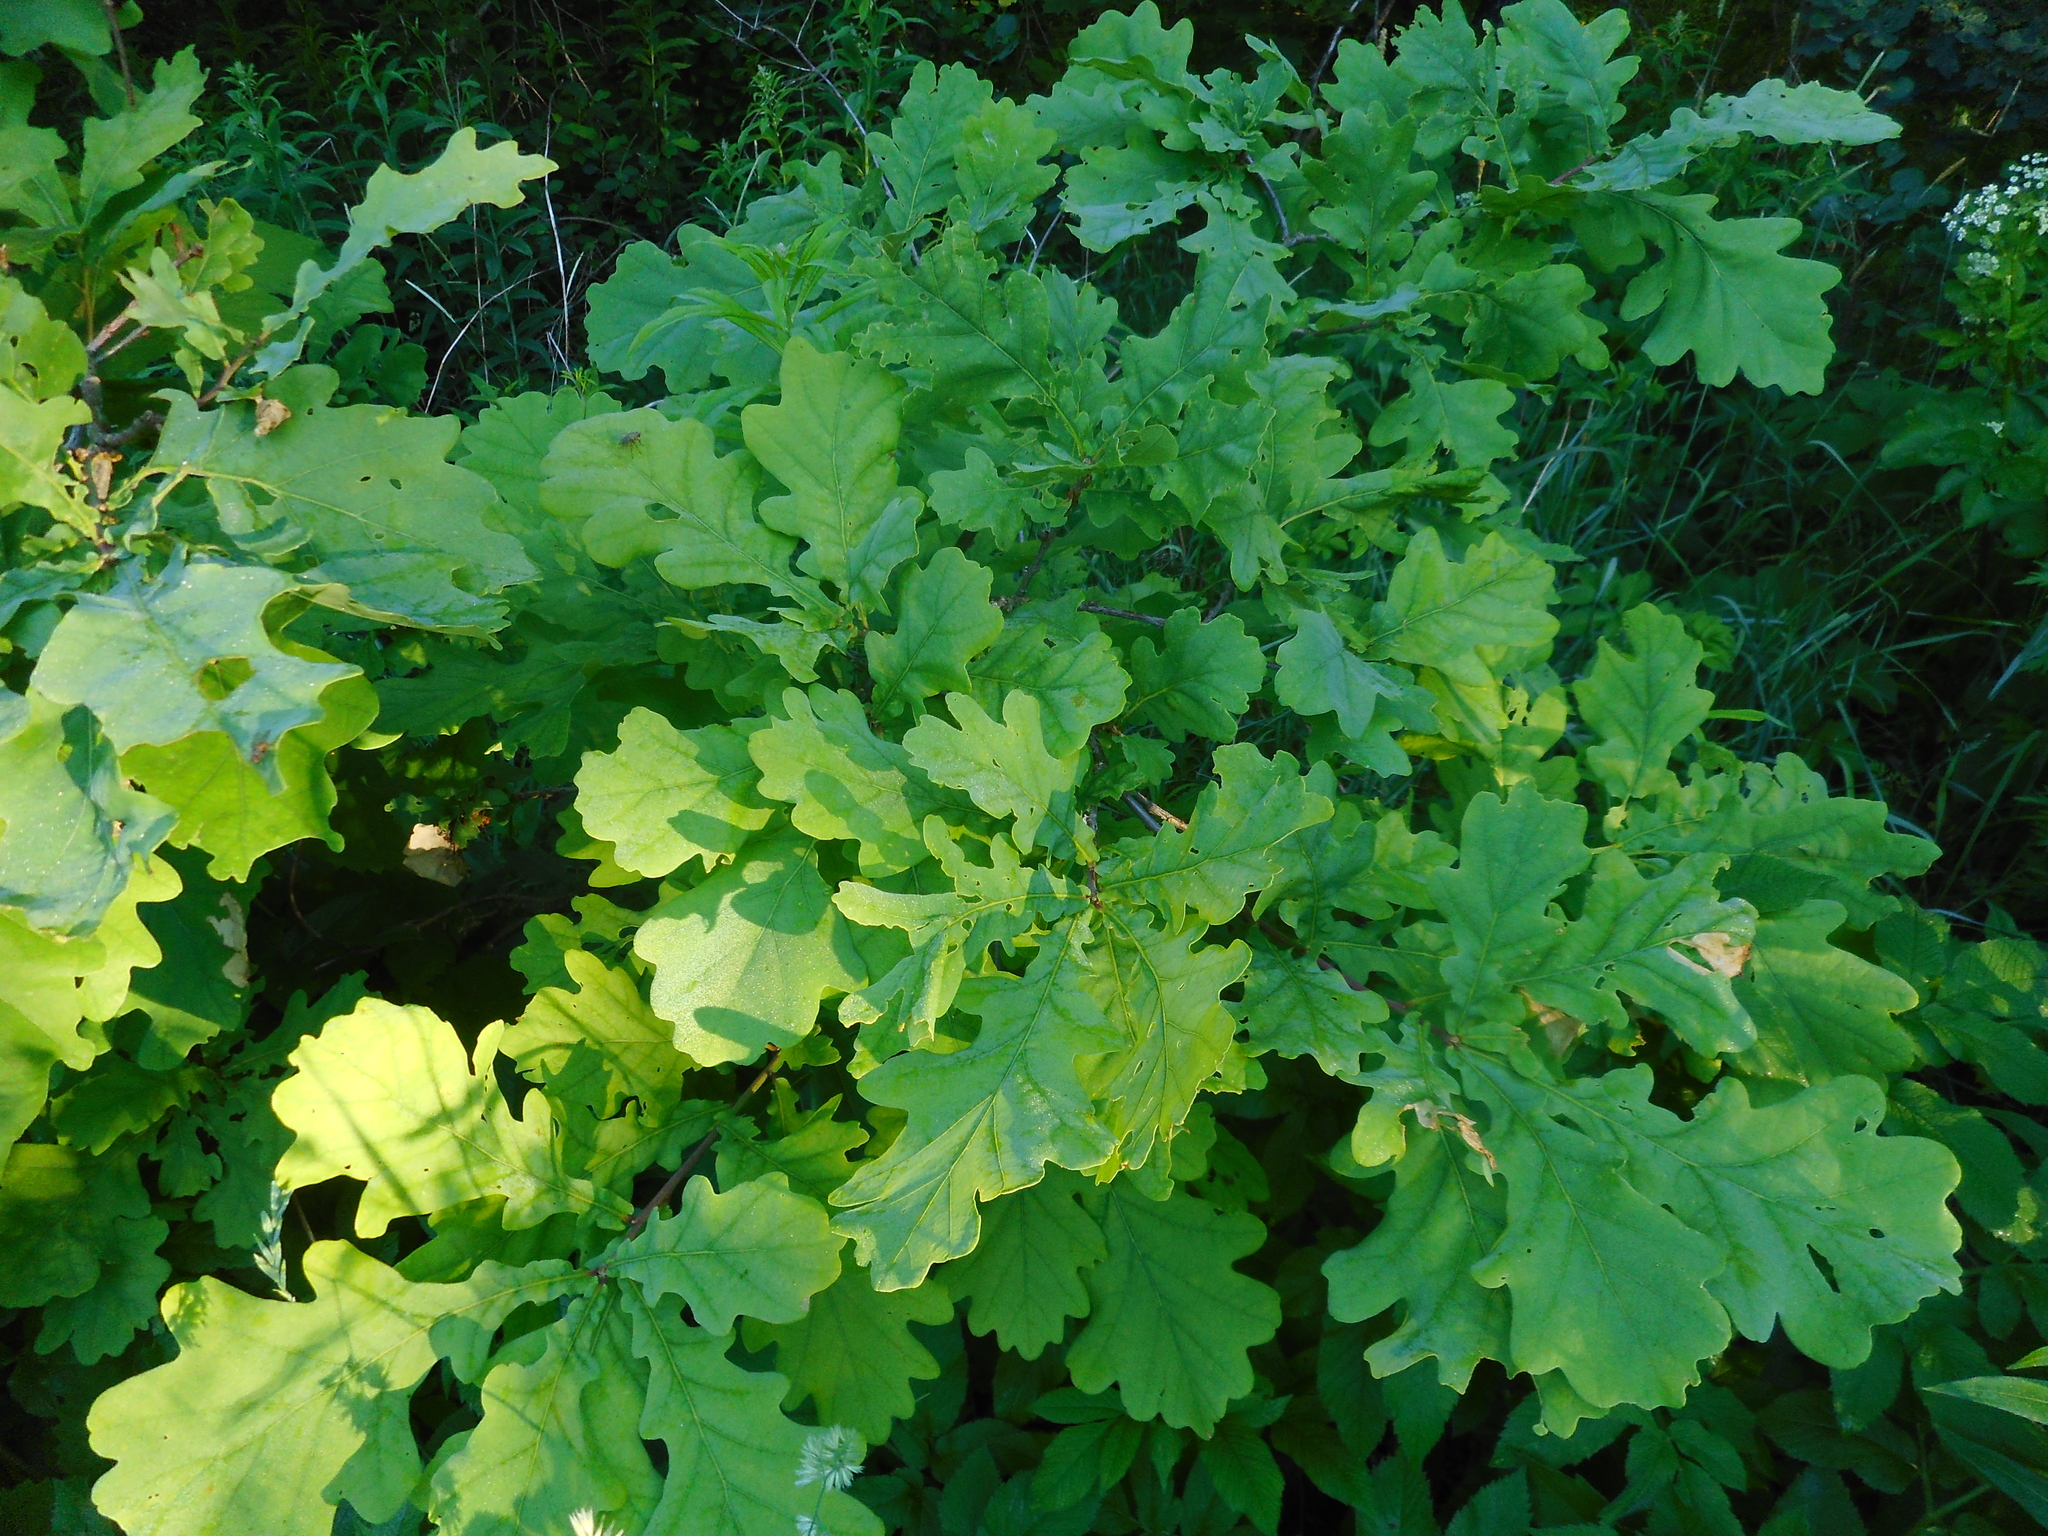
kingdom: Plantae
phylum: Tracheophyta
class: Magnoliopsida
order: Fagales
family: Fagaceae
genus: Quercus
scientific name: Quercus robur
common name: Pedunculate oak
